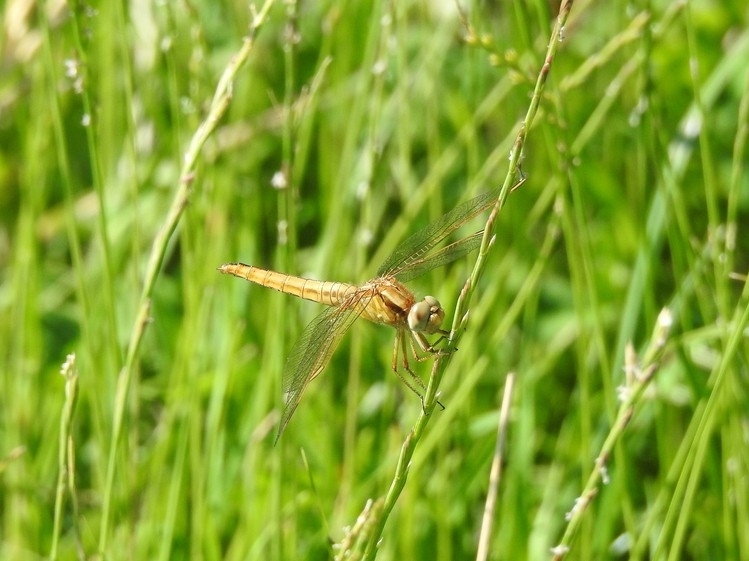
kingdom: Animalia
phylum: Arthropoda
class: Insecta
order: Odonata
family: Libellulidae
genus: Crocothemis
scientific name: Crocothemis erythraea
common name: Scarlet dragonfly
